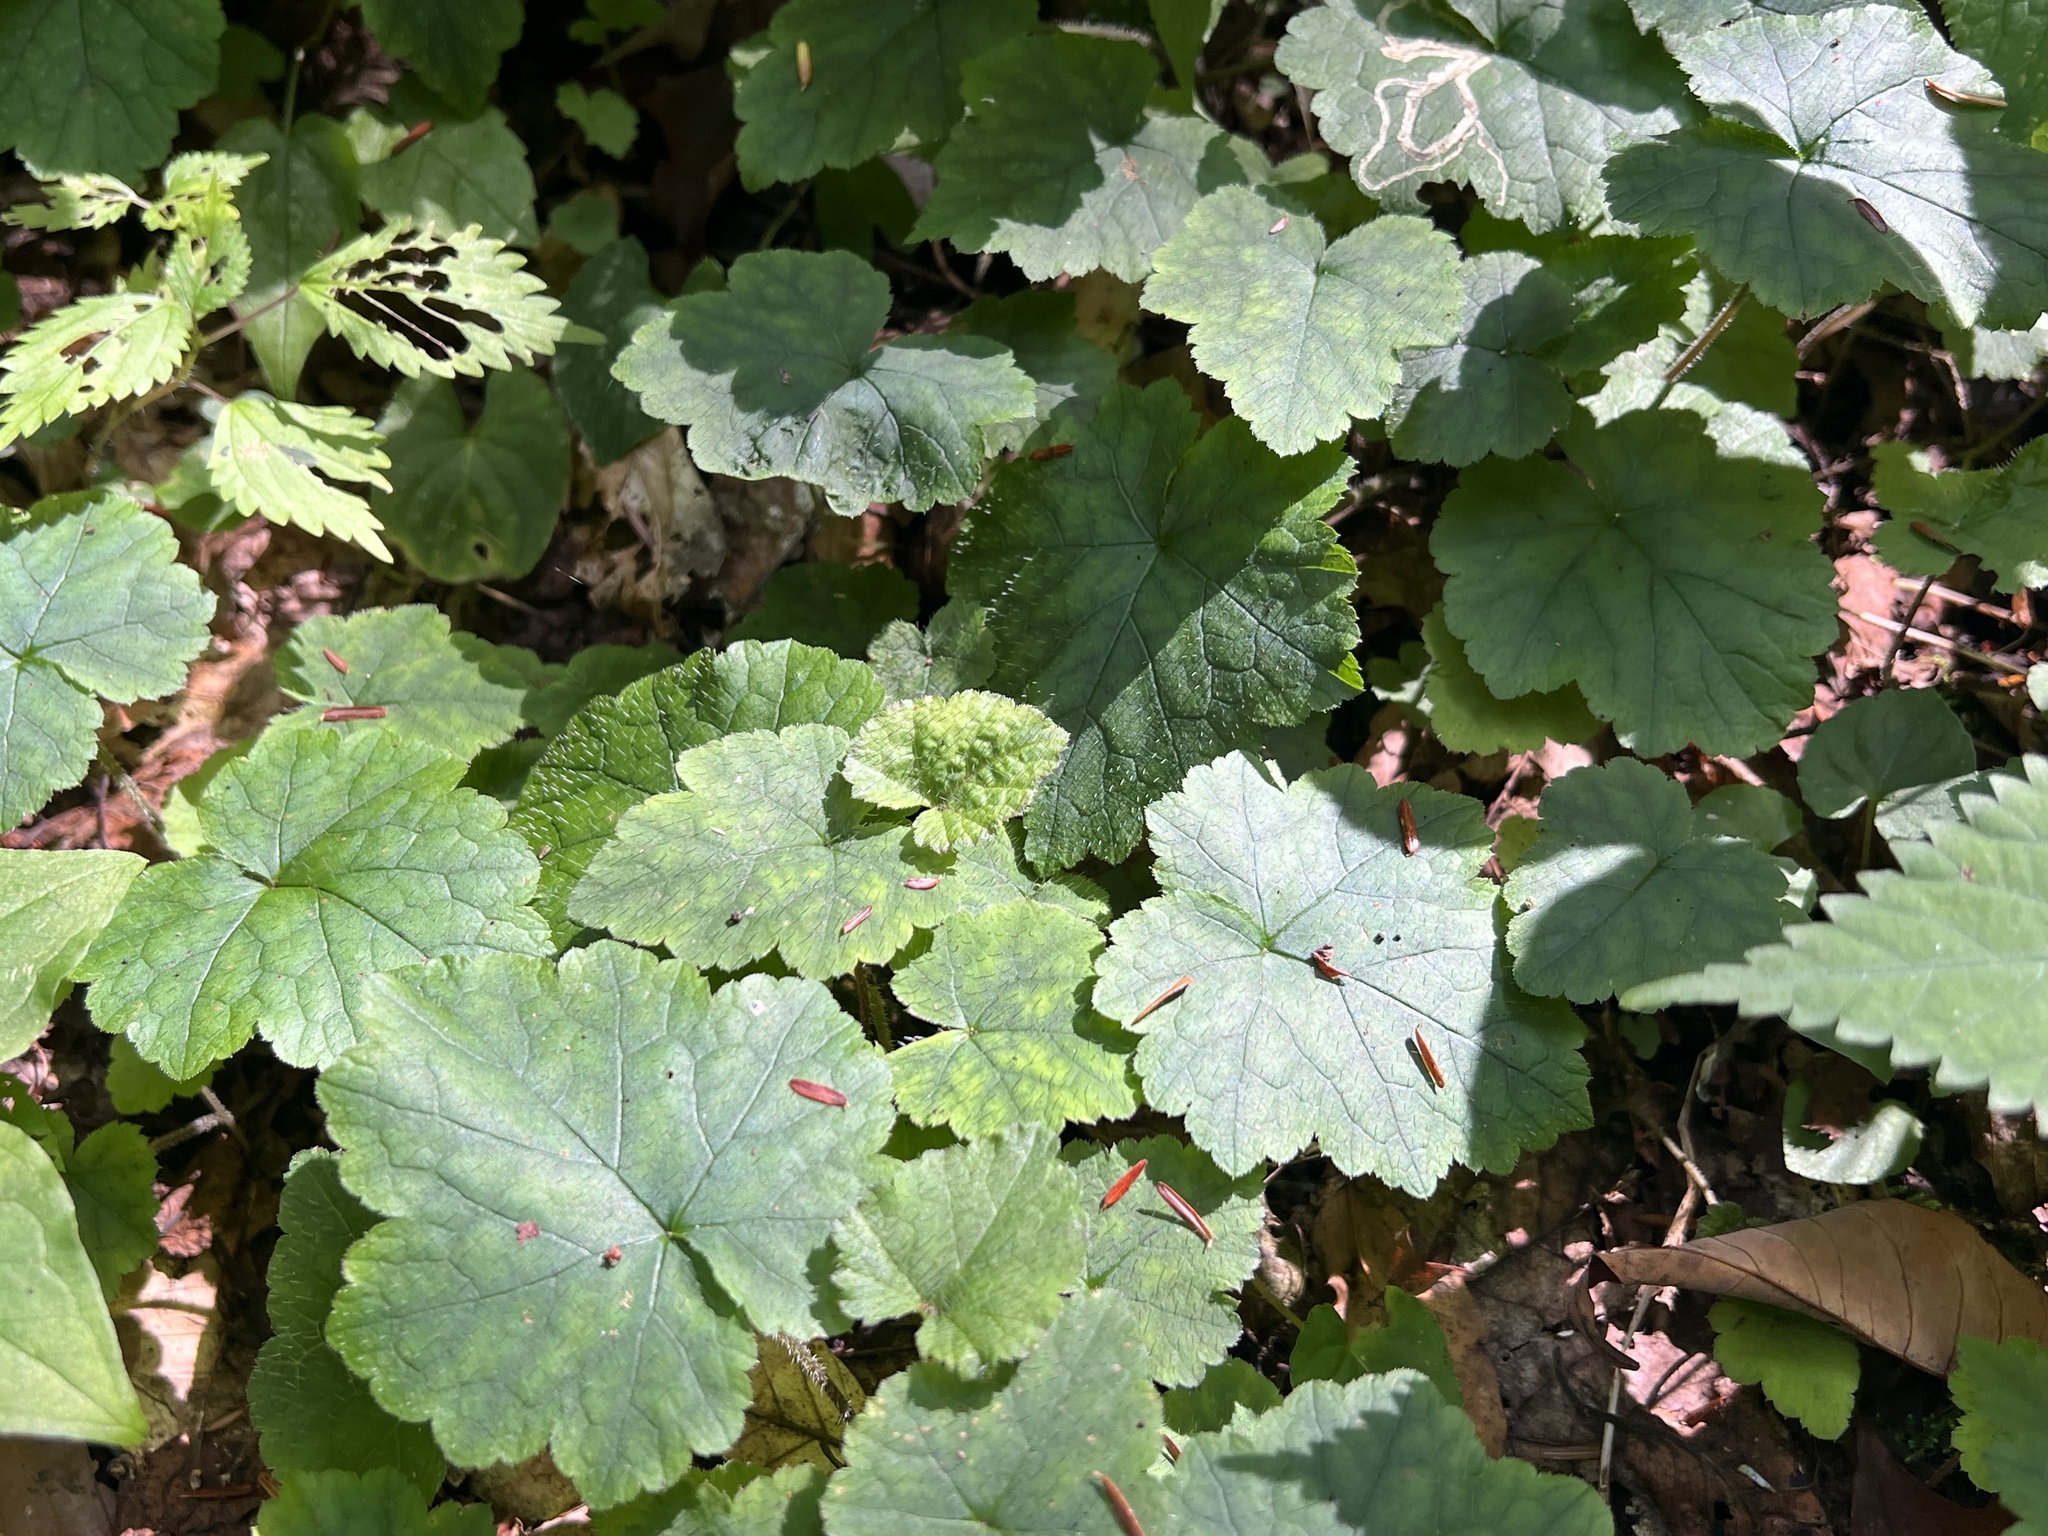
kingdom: Plantae
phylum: Tracheophyta
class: Magnoliopsida
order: Saxifragales
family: Saxifragaceae
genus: Tiarella
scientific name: Tiarella stolonifera
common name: Stoloniferous foamflower
